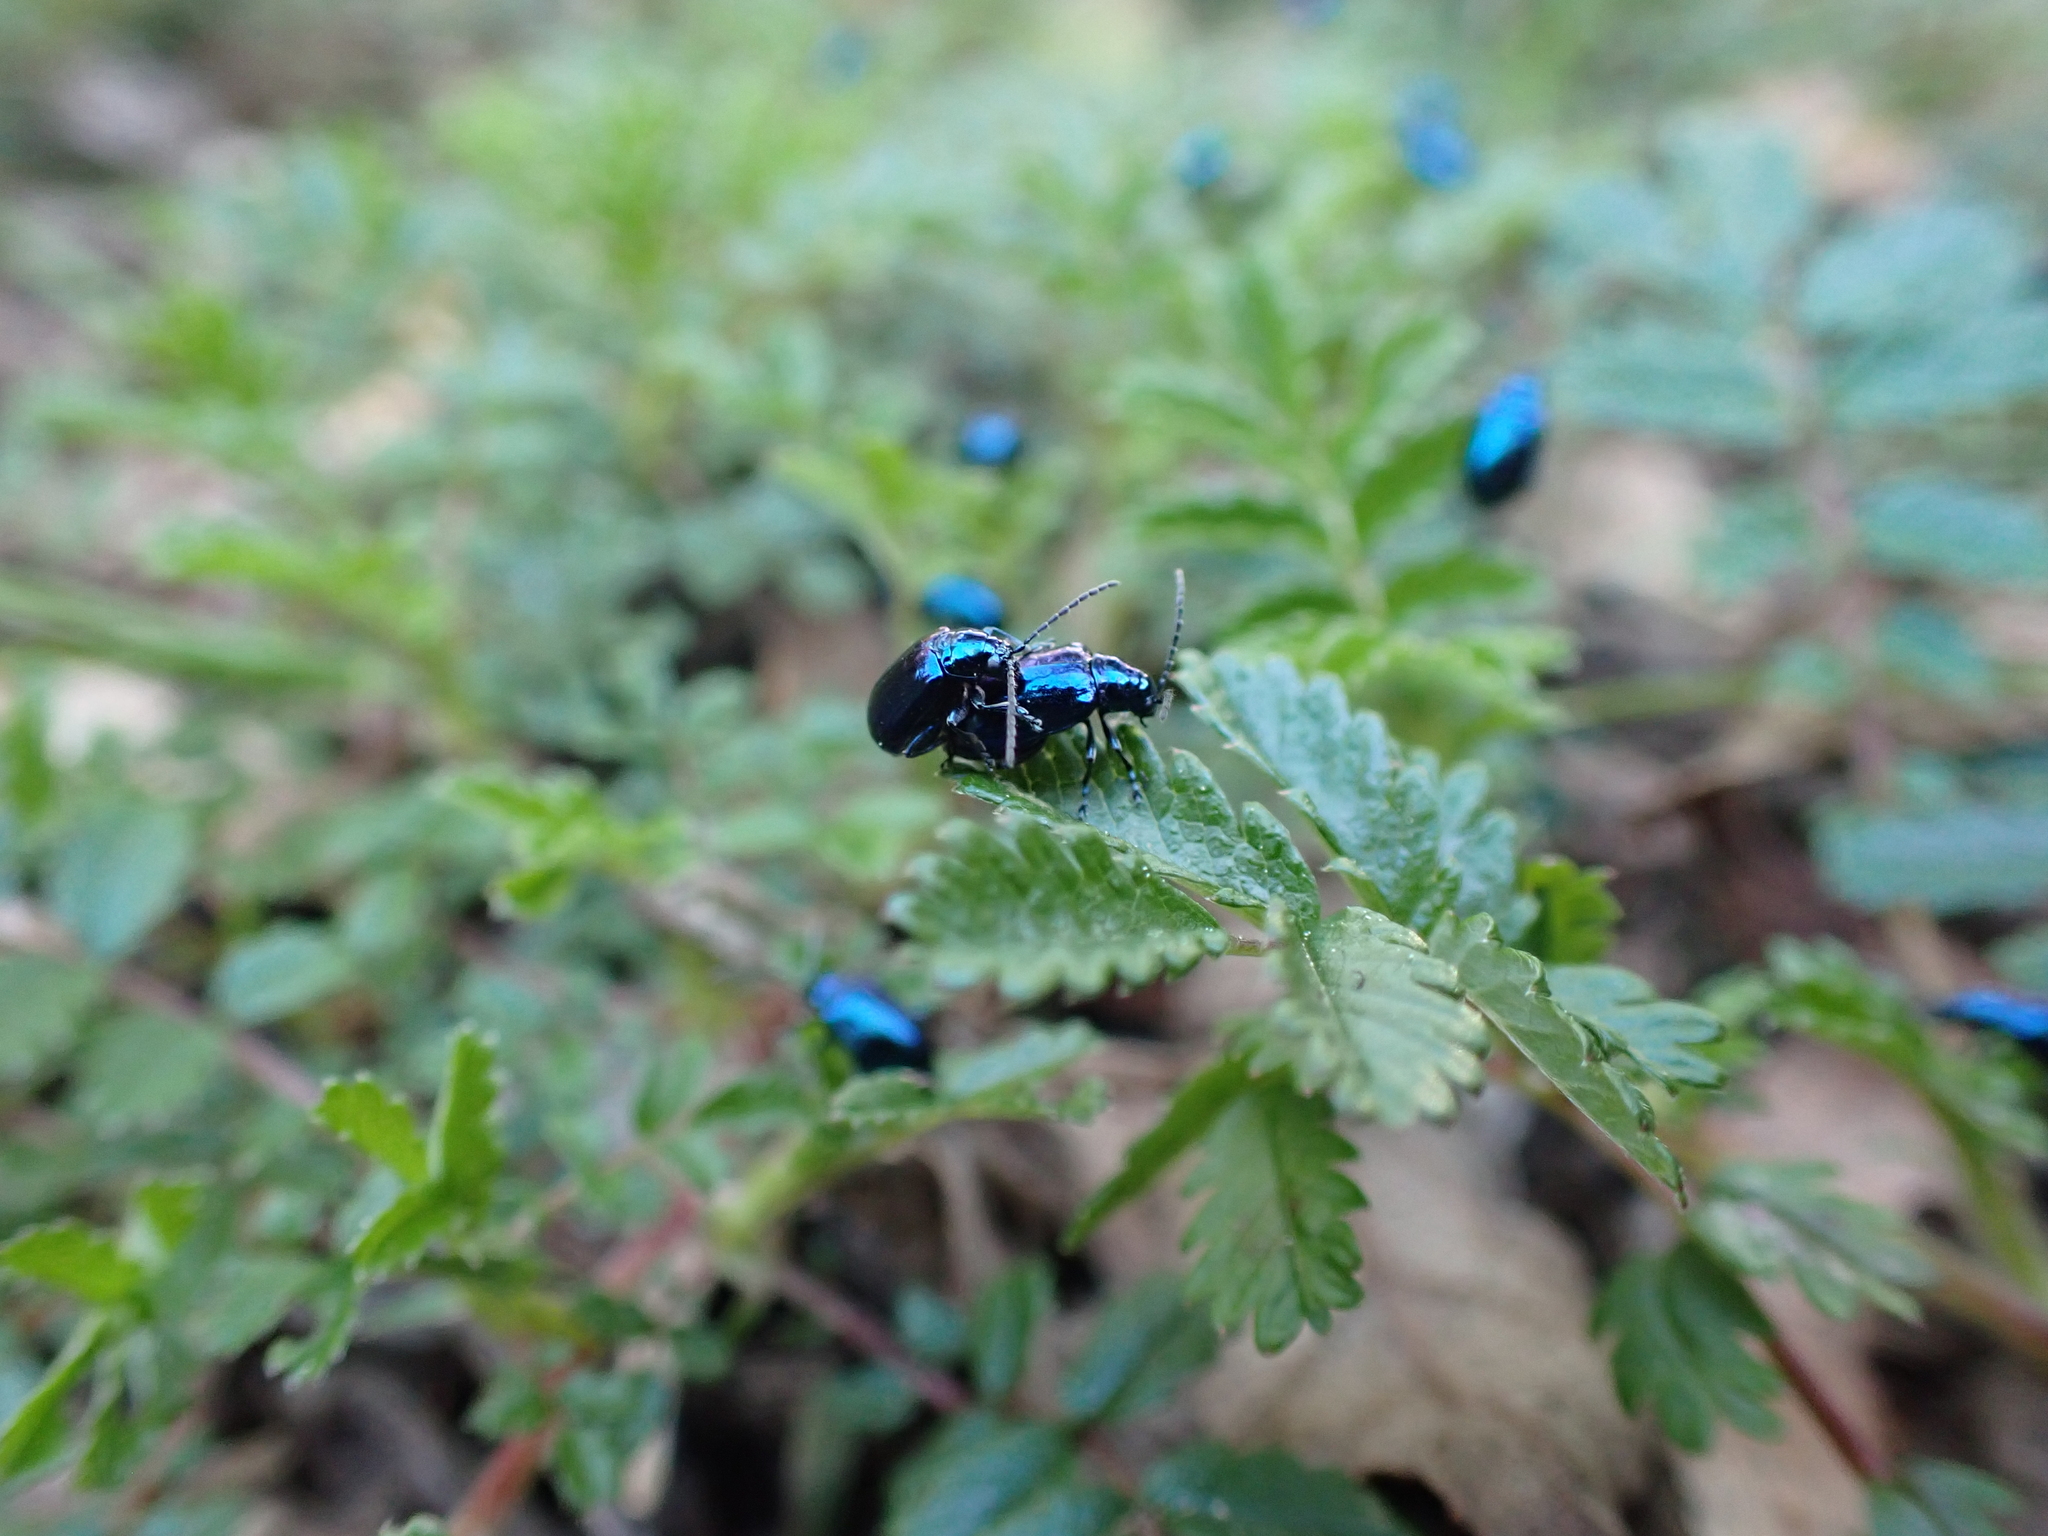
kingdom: Animalia
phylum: Arthropoda
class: Insecta
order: Coleoptera
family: Chrysomelidae
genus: Altica
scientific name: Altica corusca
